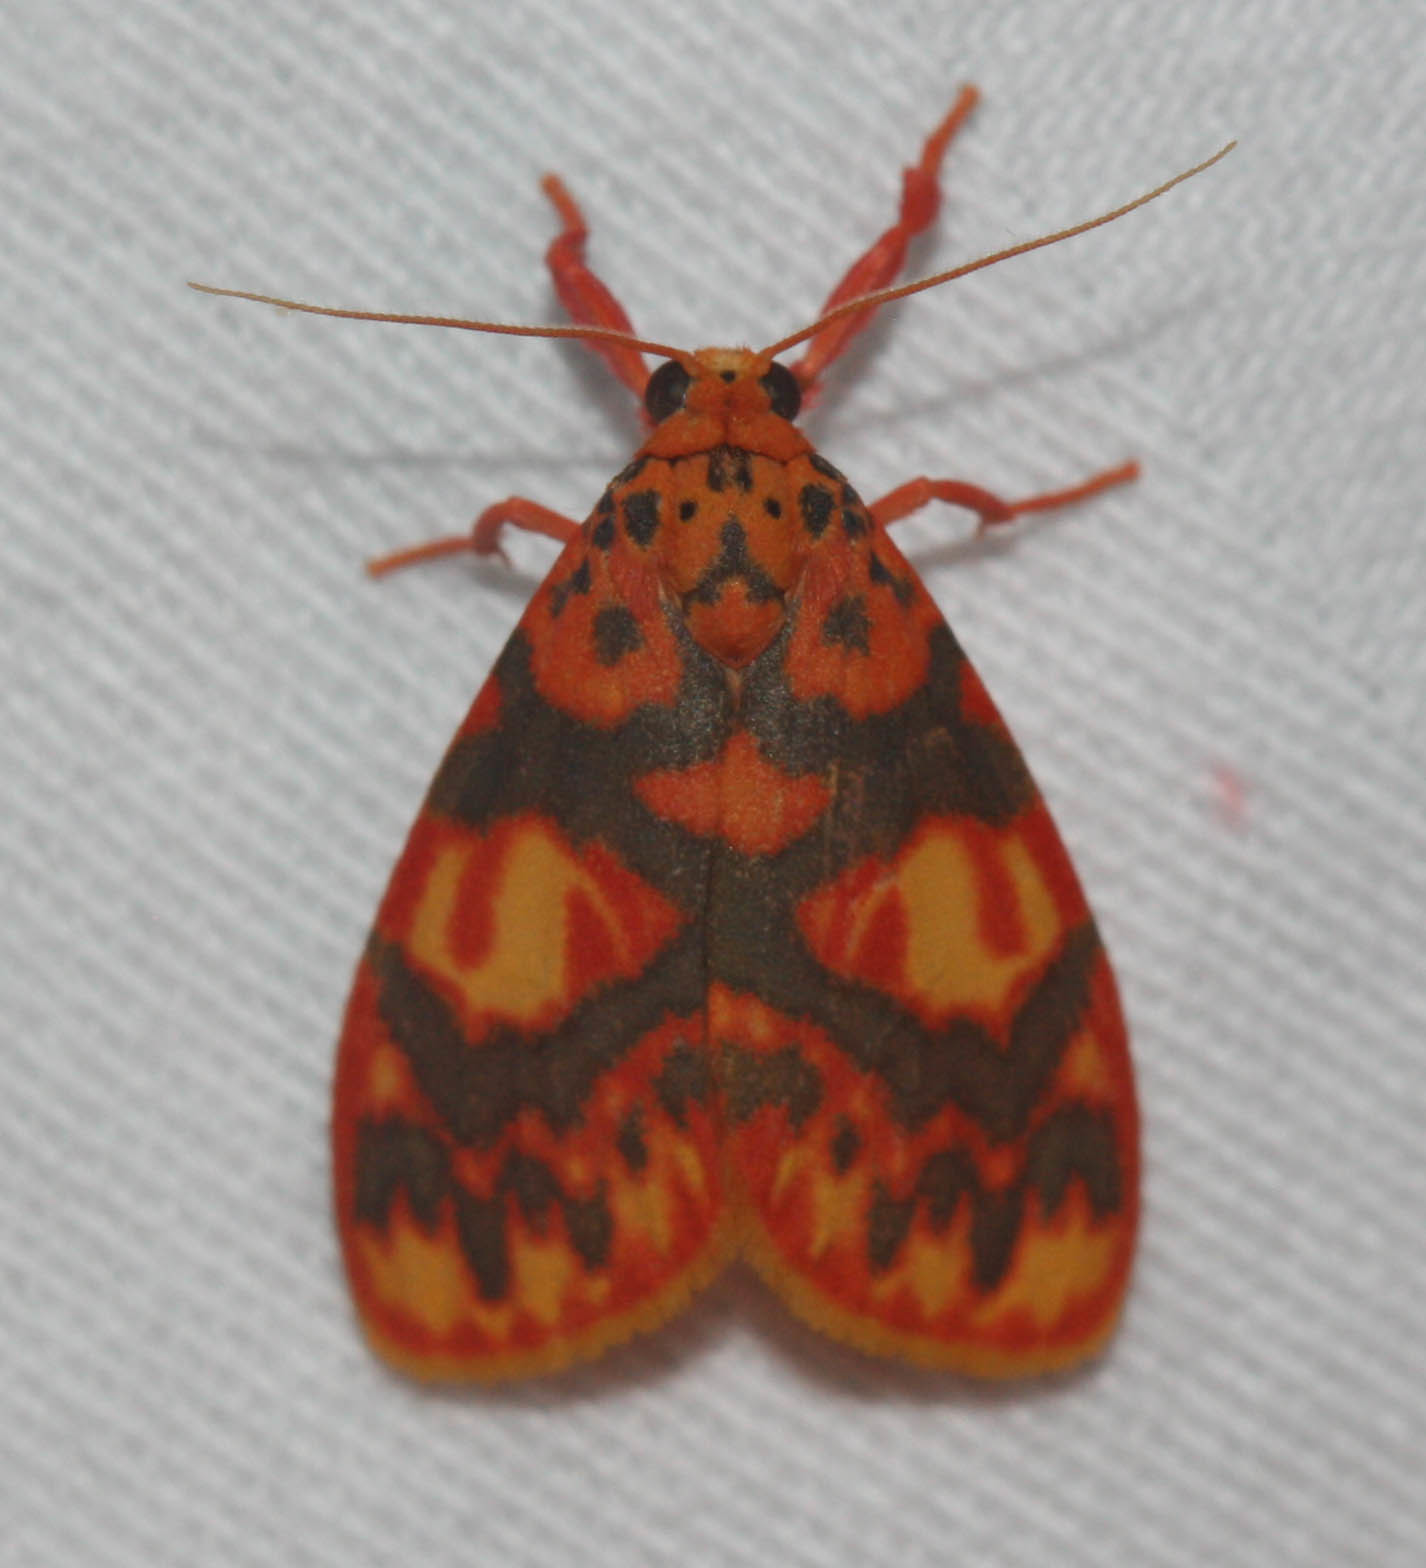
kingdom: Animalia
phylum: Arthropoda
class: Insecta
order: Lepidoptera
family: Erebidae
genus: Floridasura
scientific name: Floridasura tricolor
